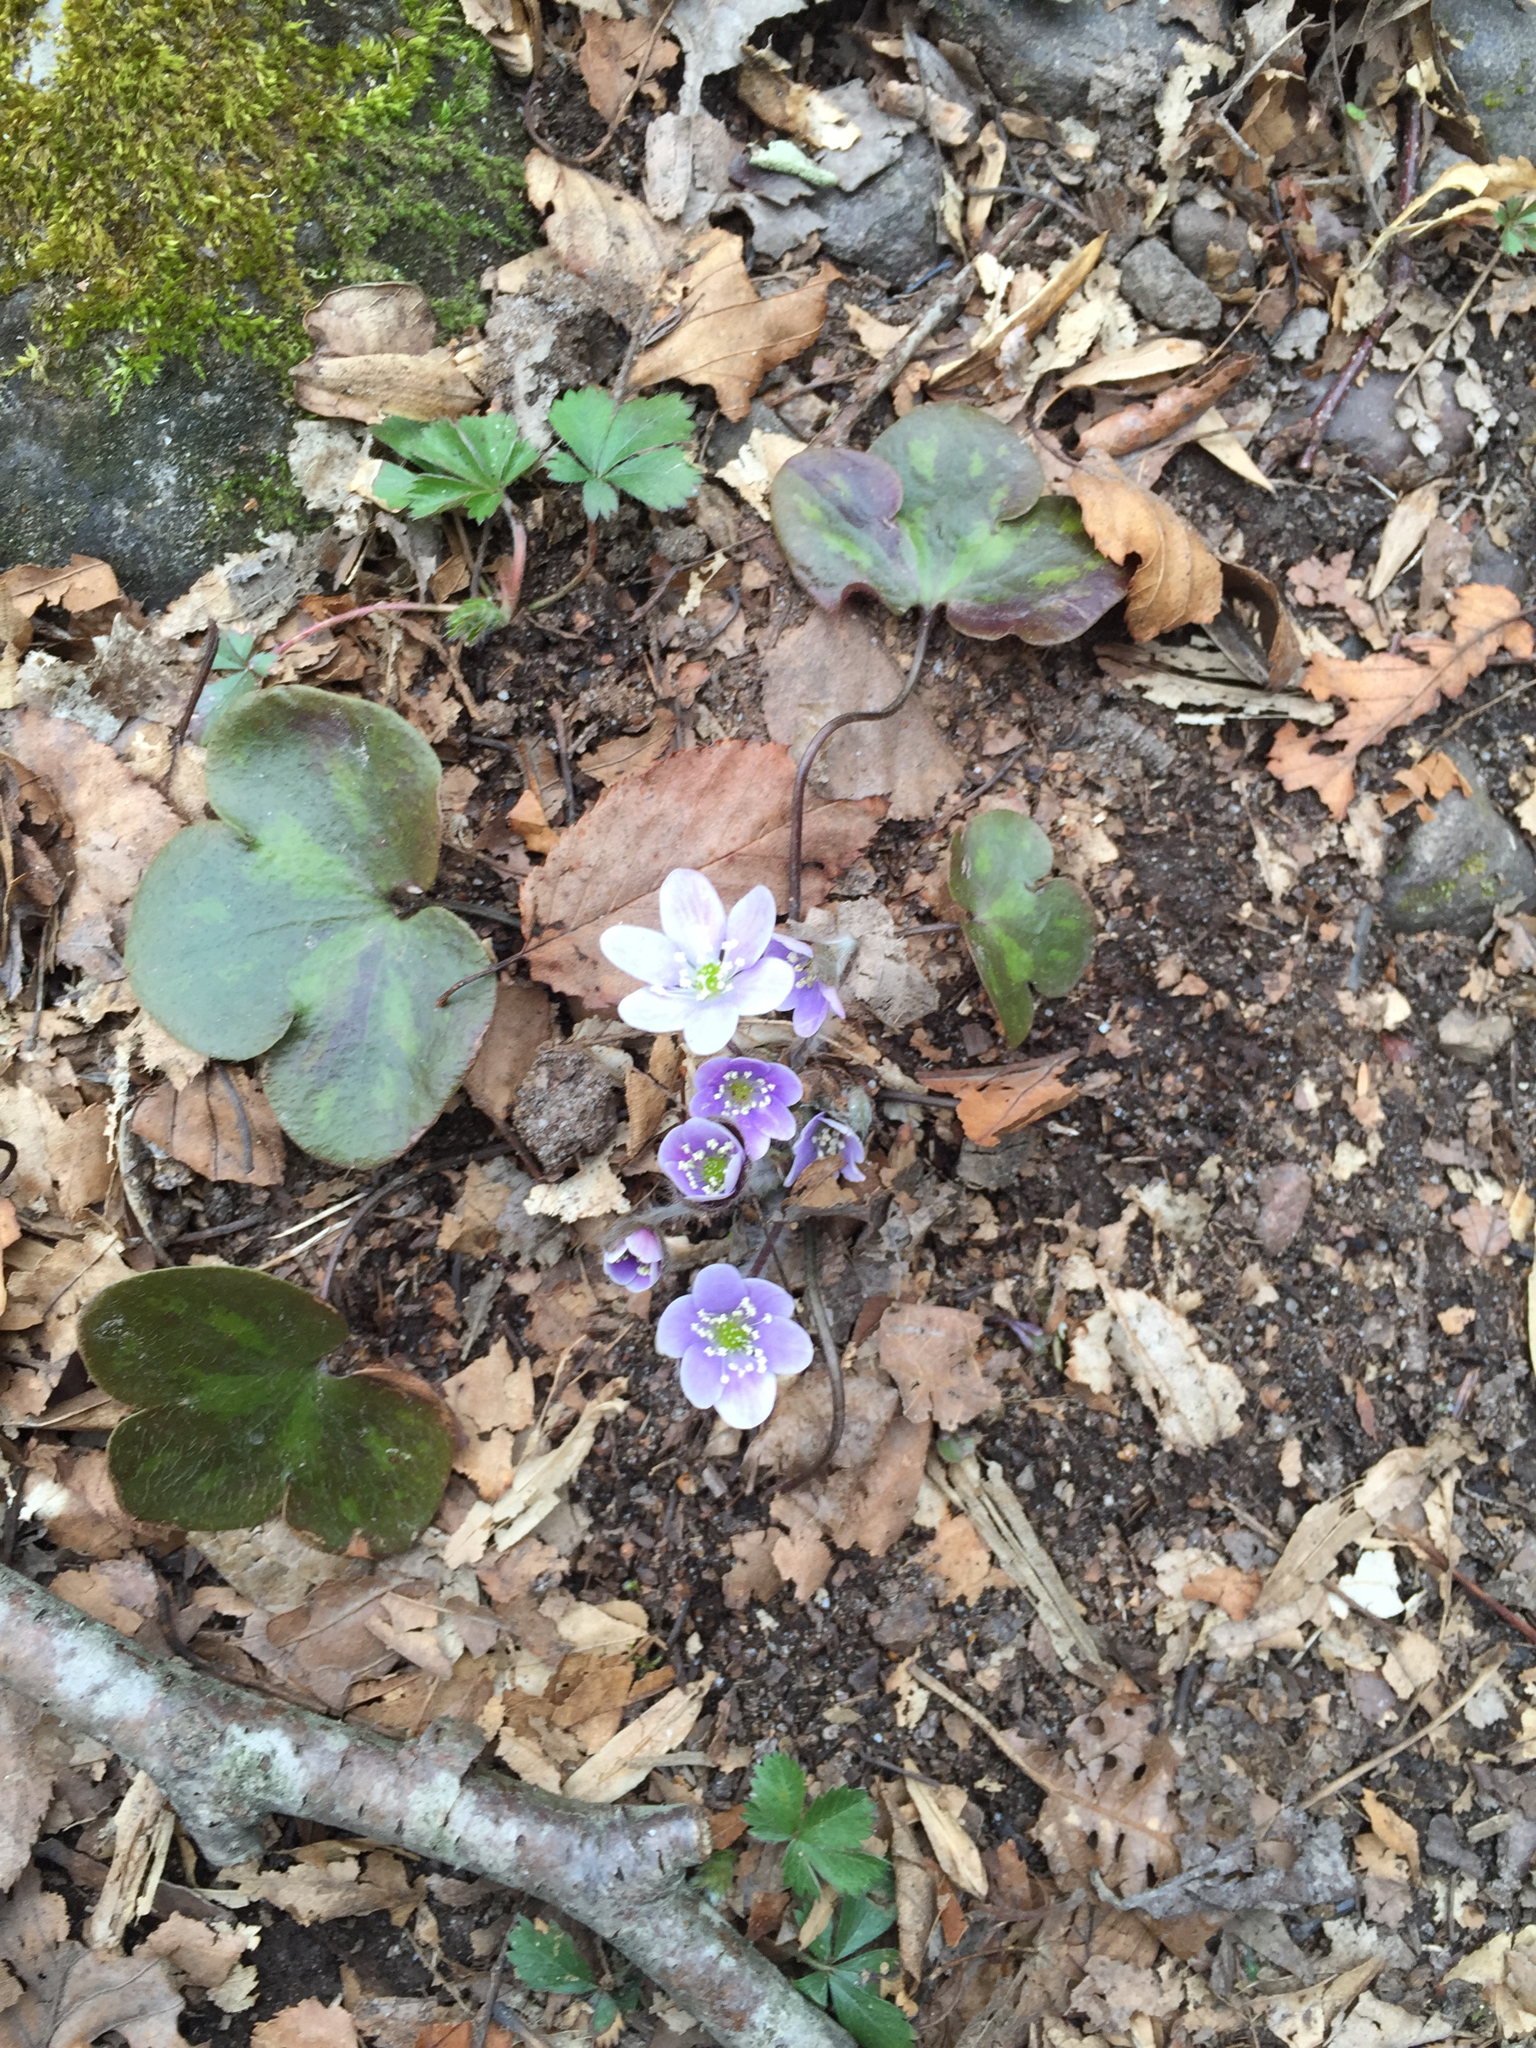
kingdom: Plantae
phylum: Tracheophyta
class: Magnoliopsida
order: Ranunculales
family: Ranunculaceae
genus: Hepatica
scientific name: Hepatica americana
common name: American hepatica
